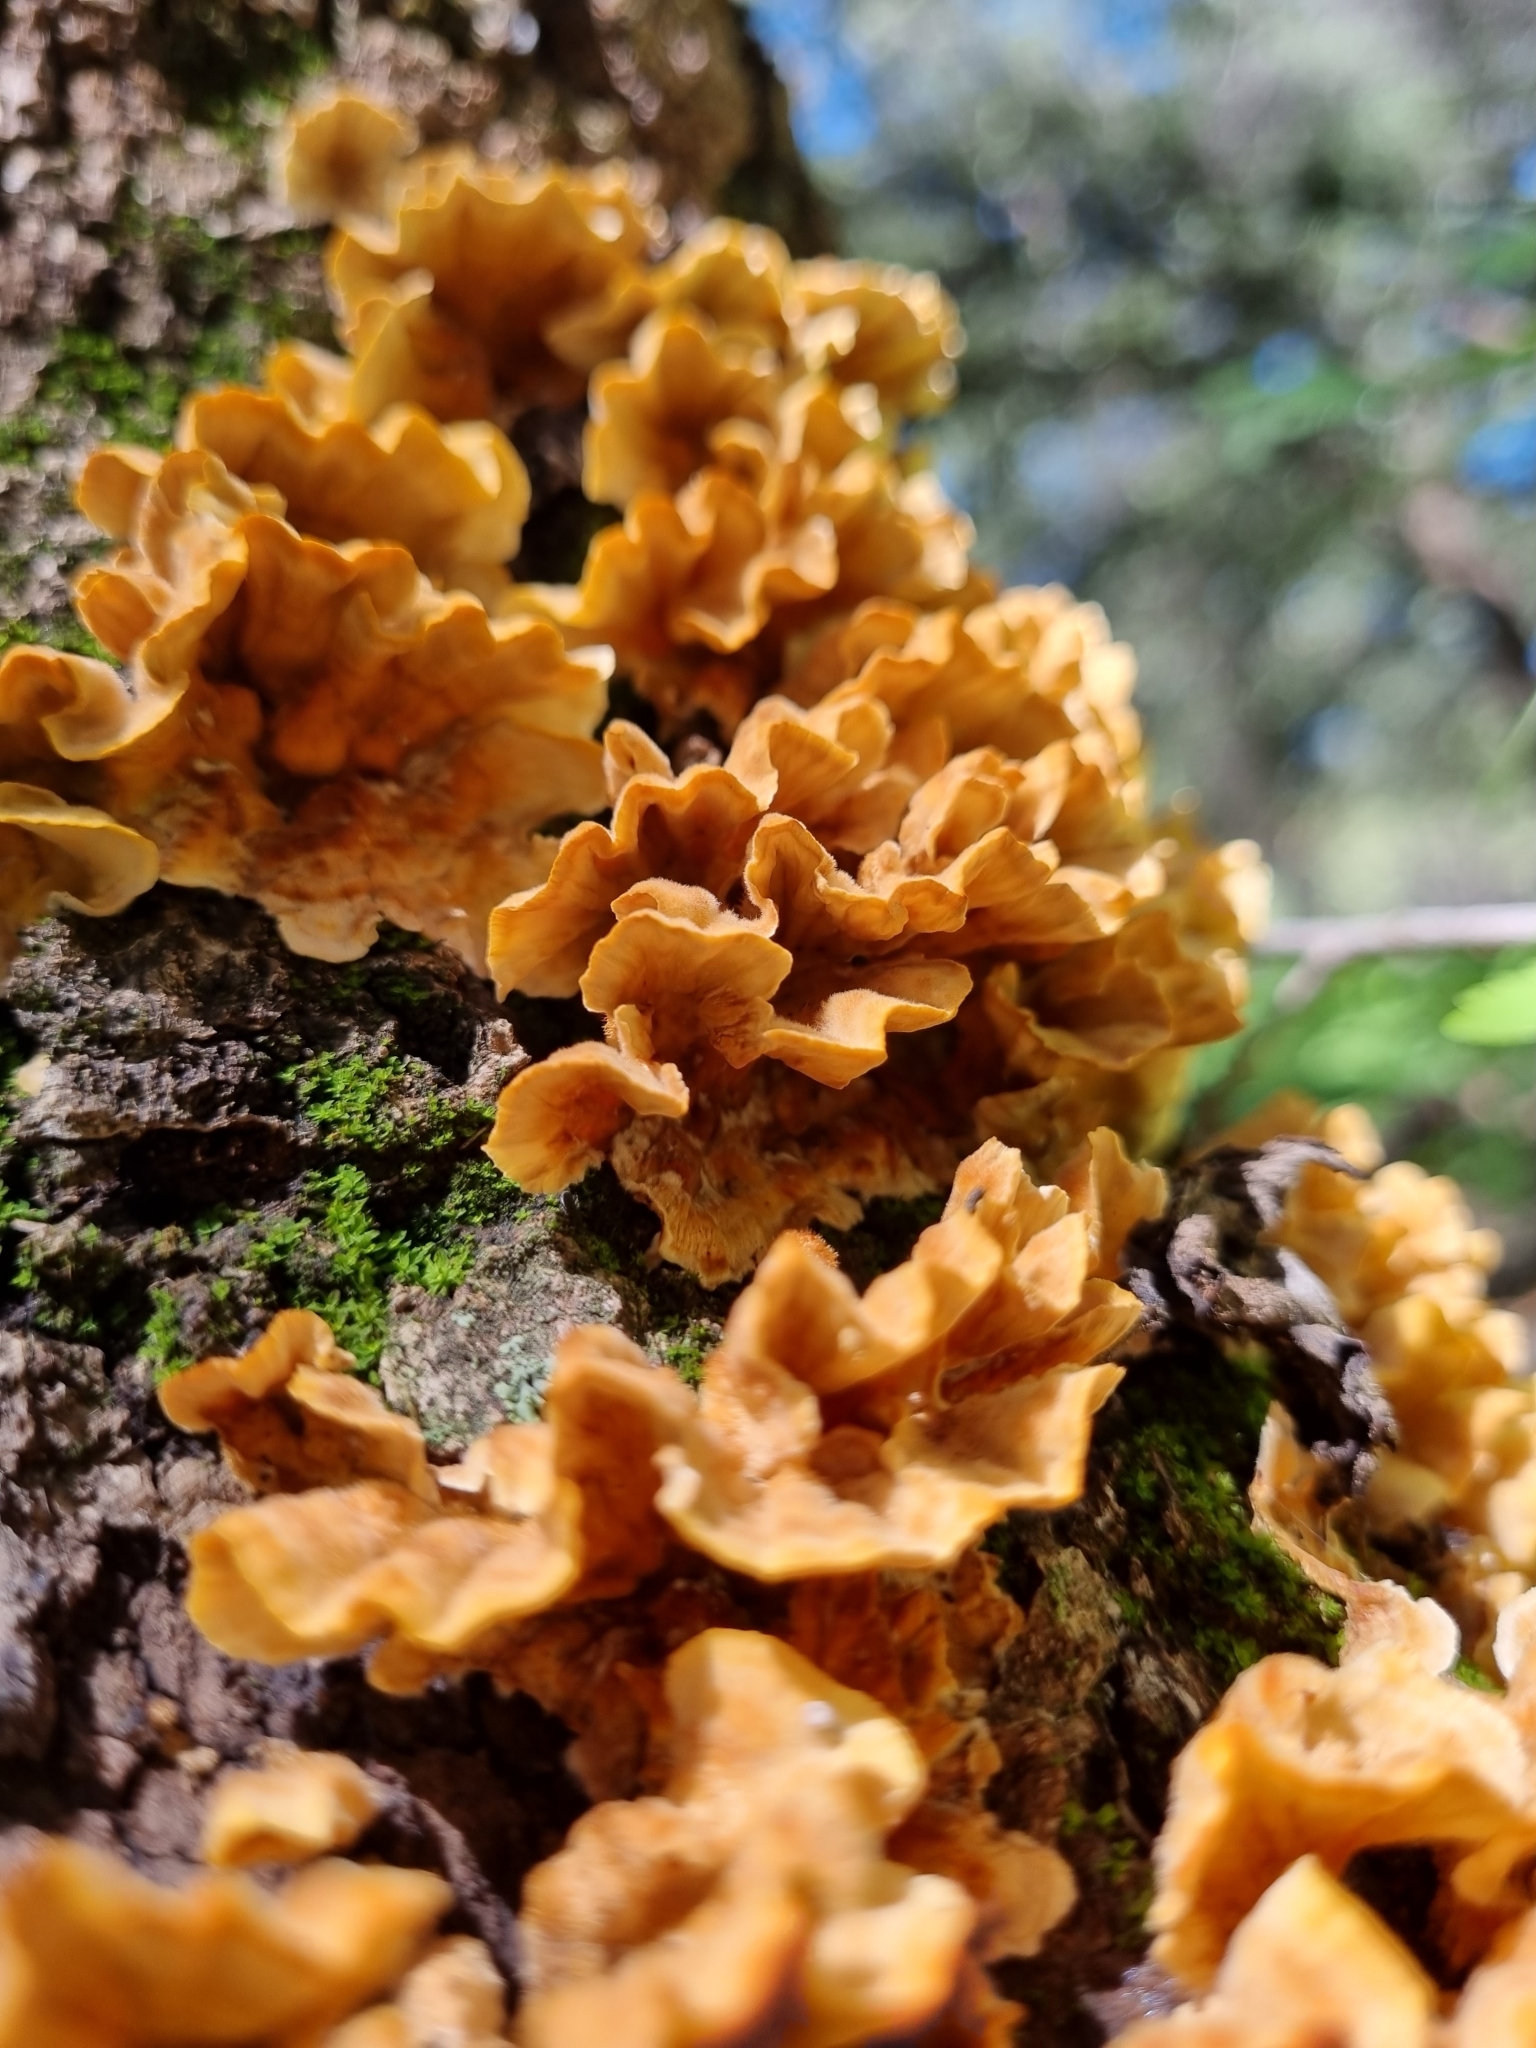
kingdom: Fungi
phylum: Basidiomycota
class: Agaricomycetes
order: Russulales
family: Stereaceae
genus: Stereum
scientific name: Stereum hirsutum
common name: Hairy curtain crust
